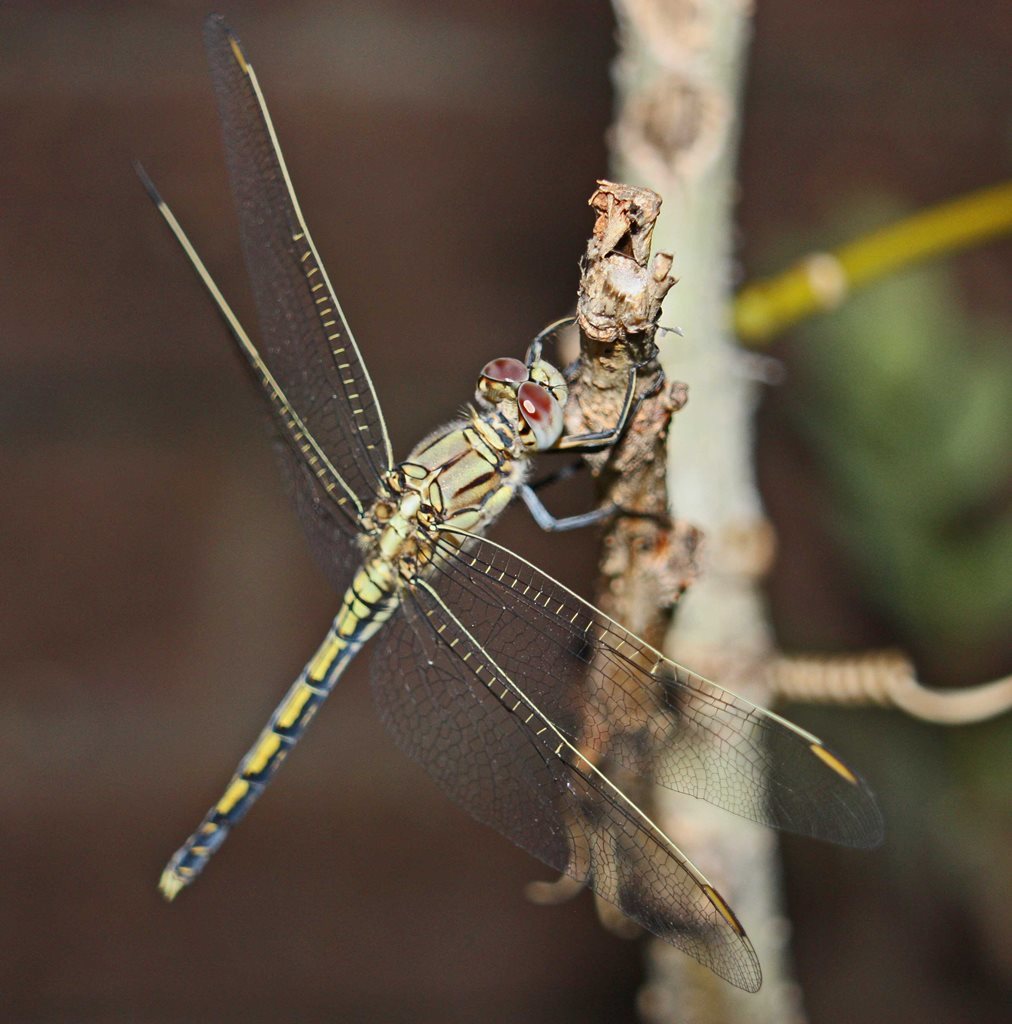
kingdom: Animalia
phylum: Arthropoda
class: Insecta
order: Odonata
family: Libellulidae
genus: Orthetrum
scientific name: Orthetrum caledonicum
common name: Blue skimmer
